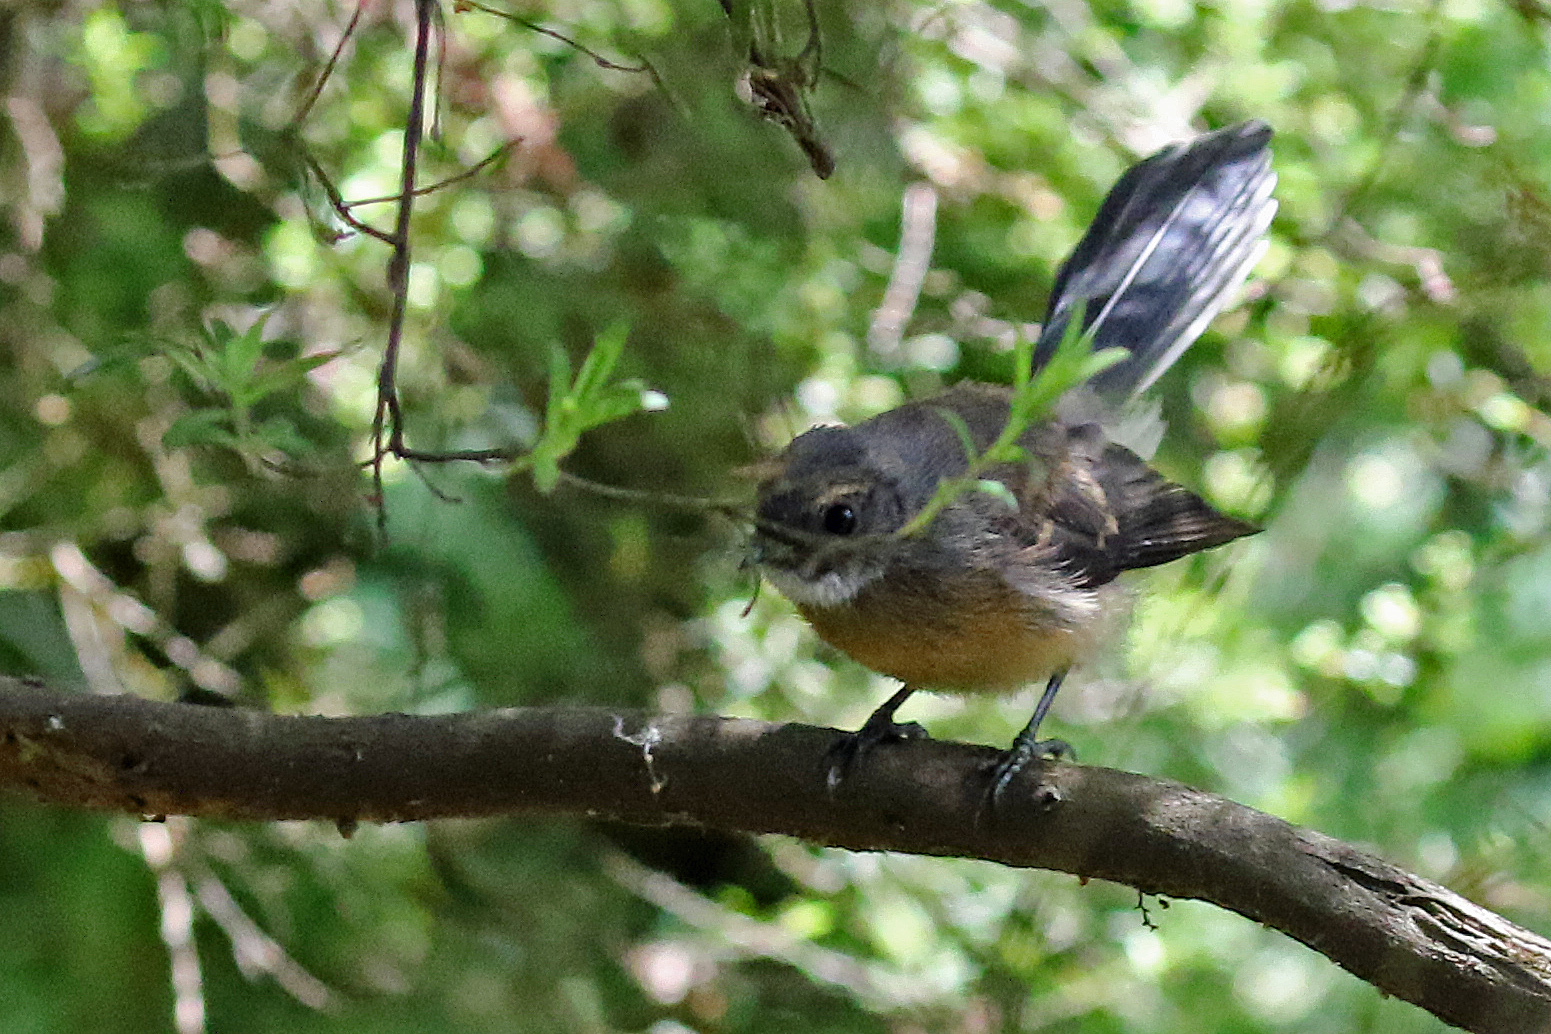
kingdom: Animalia
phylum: Chordata
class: Aves
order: Passeriformes
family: Rhipiduridae
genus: Rhipidura
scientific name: Rhipidura fuliginosa
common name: New zealand fantail
